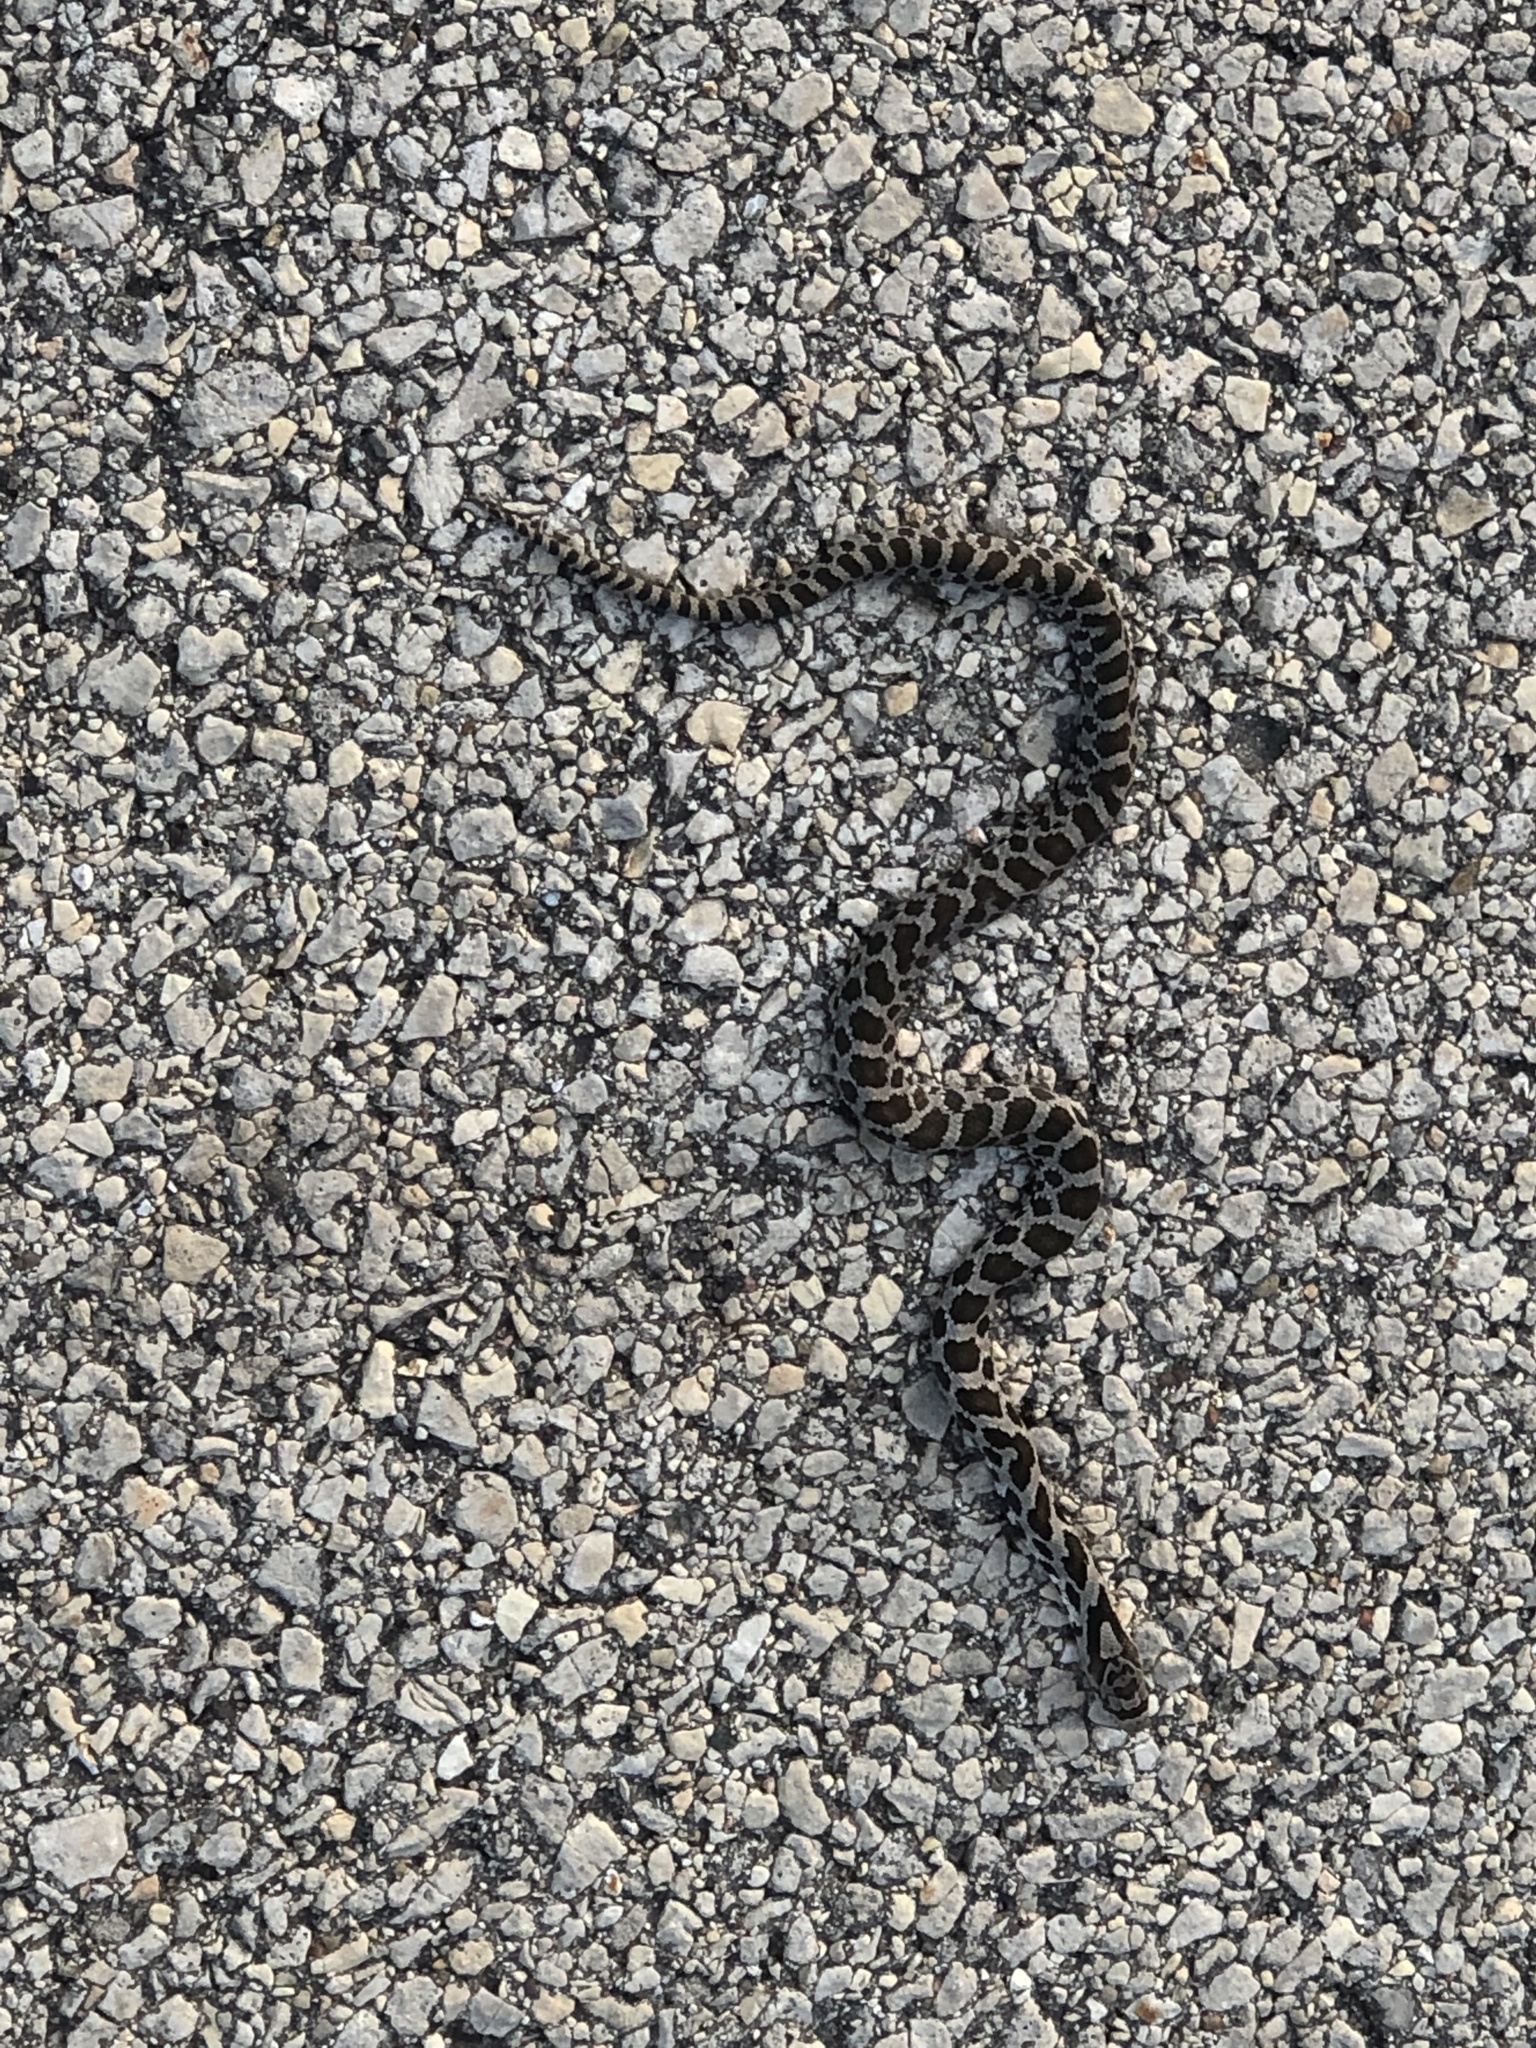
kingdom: Animalia
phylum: Chordata
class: Squamata
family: Colubridae
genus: Pantherophis
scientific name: Pantherophis vulpinus
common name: Eastern fox snake
